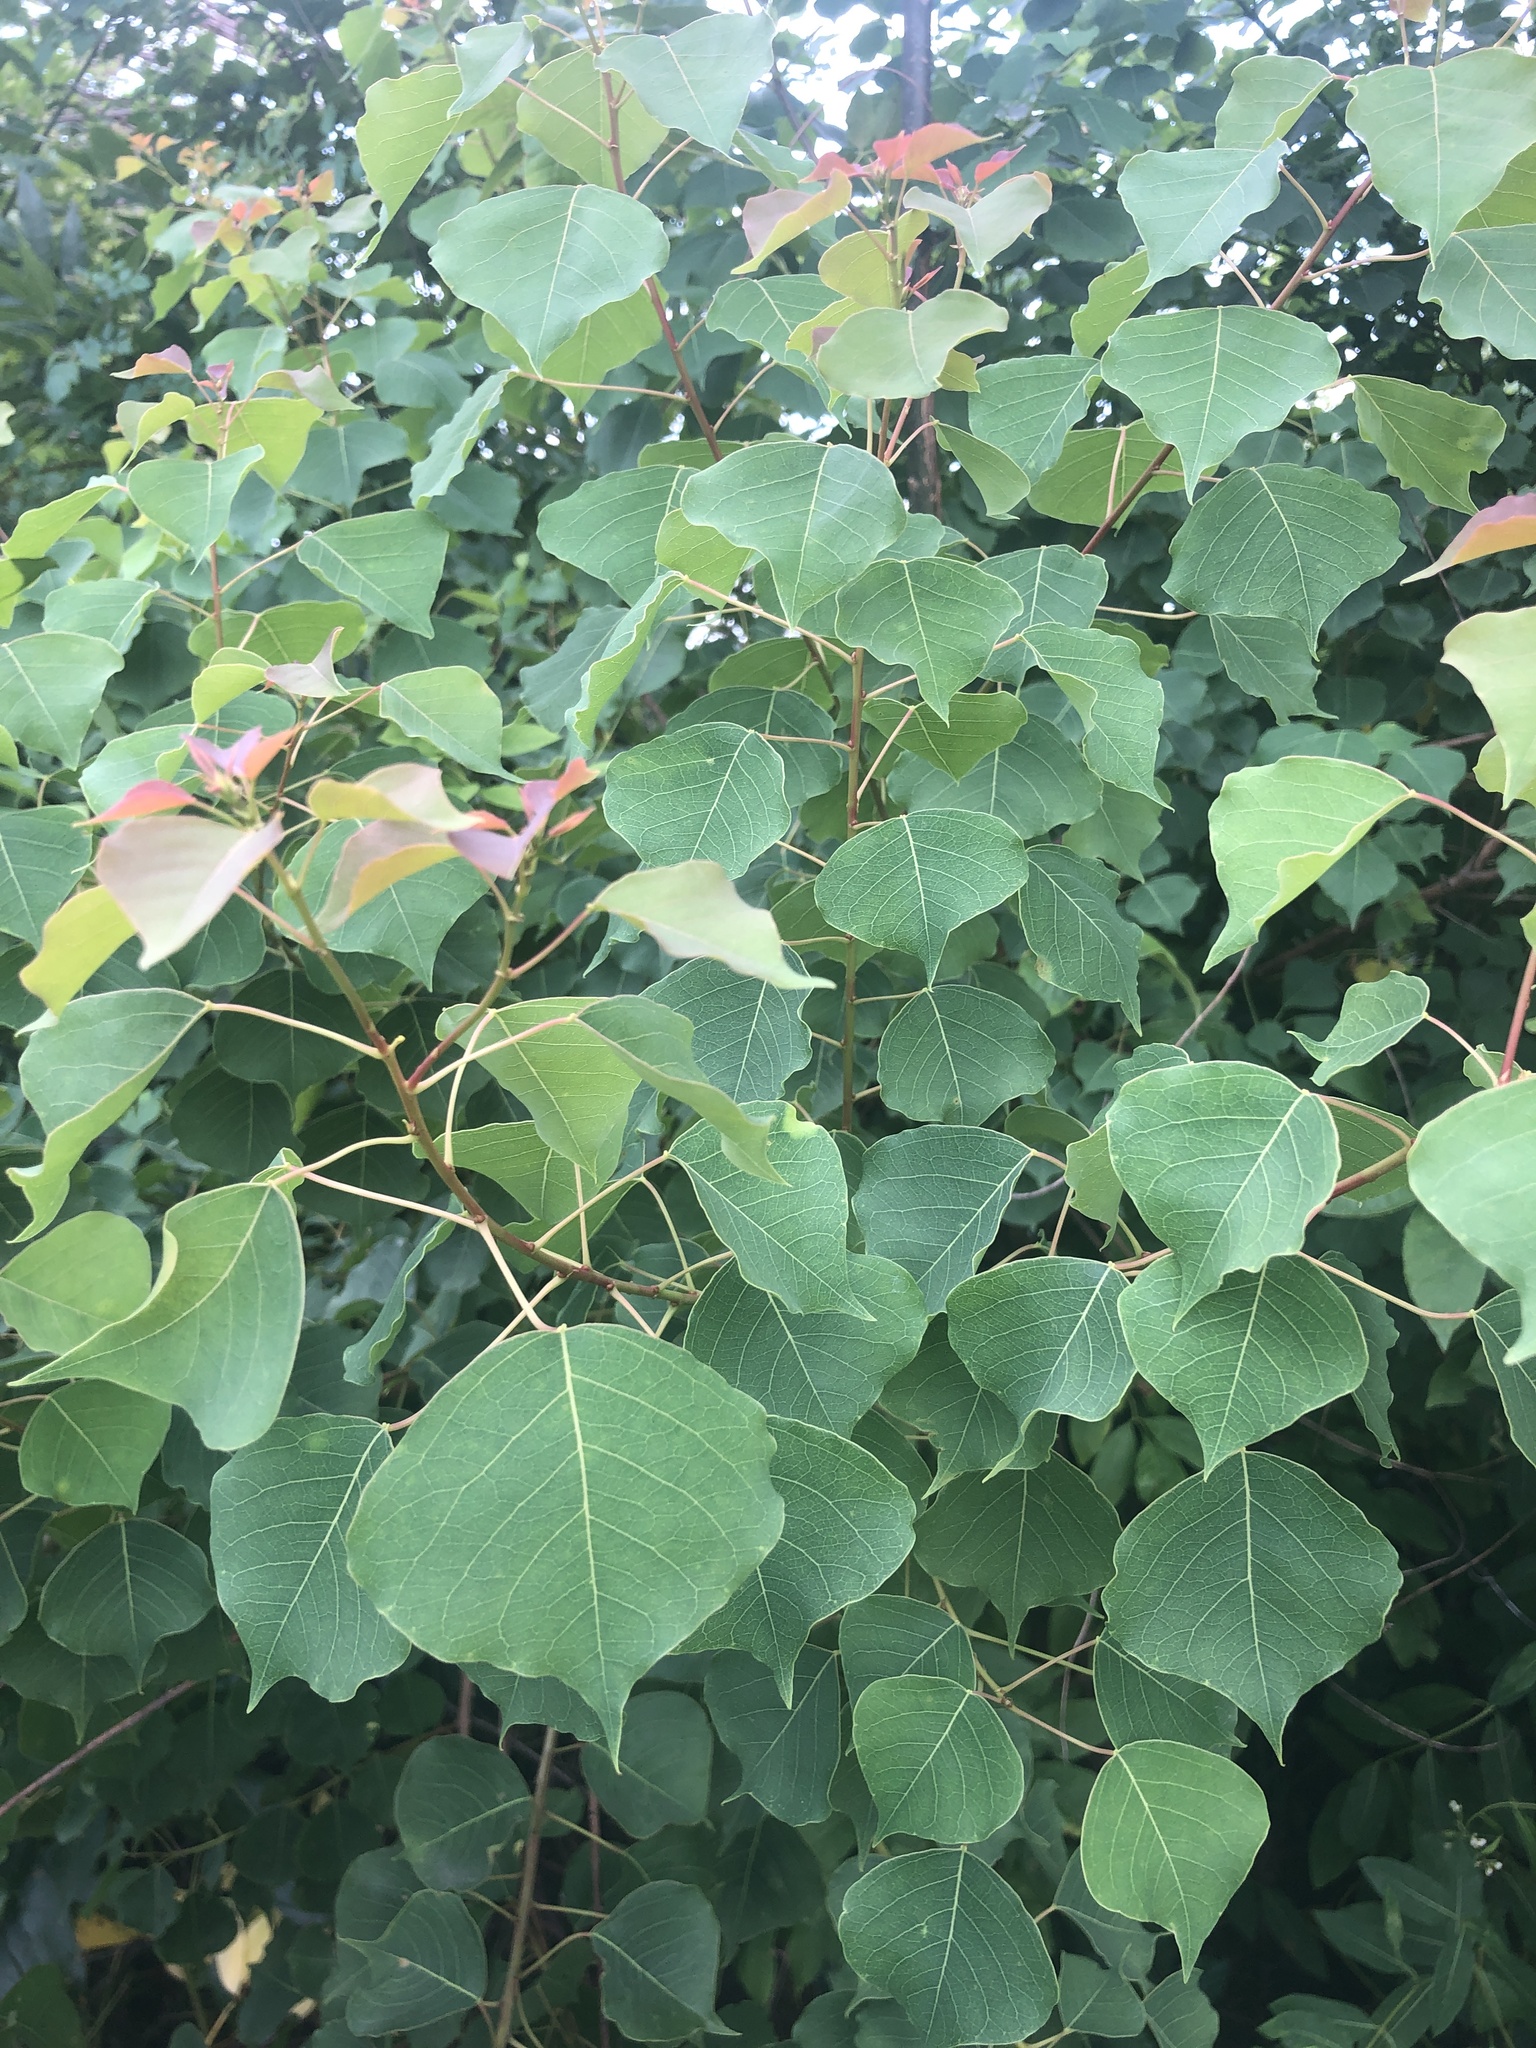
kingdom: Plantae
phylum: Tracheophyta
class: Magnoliopsida
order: Malpighiales
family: Euphorbiaceae
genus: Triadica
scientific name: Triadica sebifera
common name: Chinese tallow
